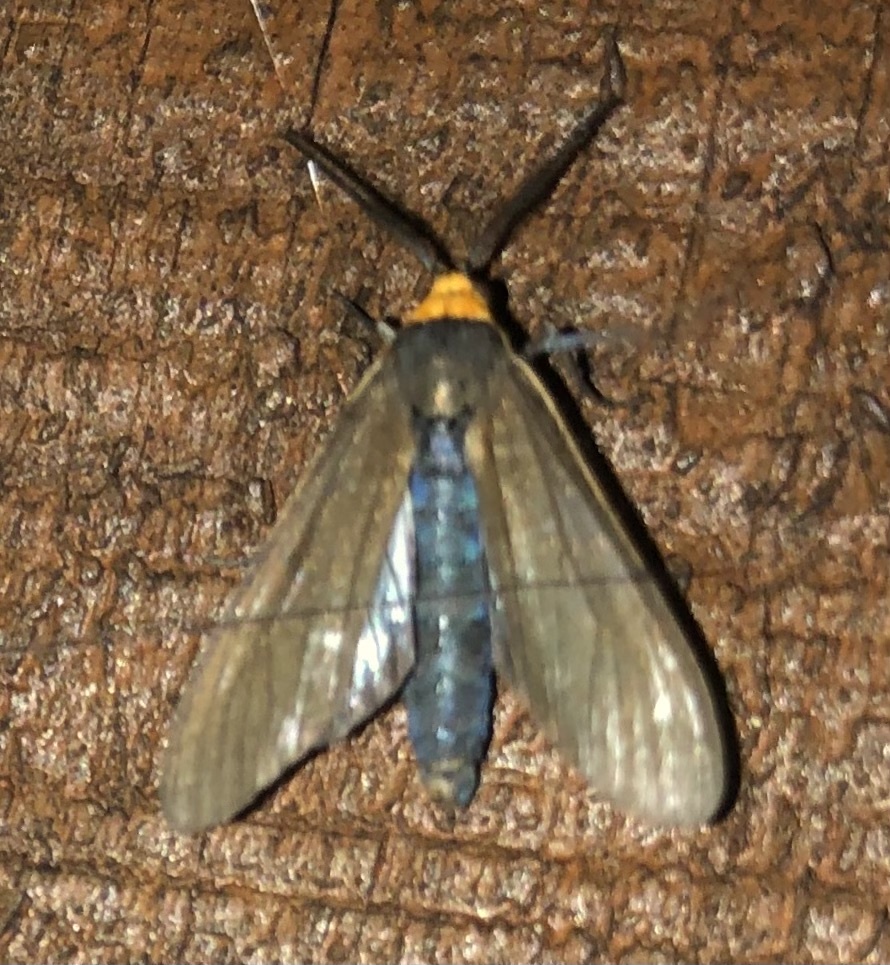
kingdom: Animalia
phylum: Arthropoda
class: Insecta
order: Lepidoptera
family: Erebidae
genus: Cisseps
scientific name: Cisseps fulvicollis
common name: Yellow-collared scape moth
